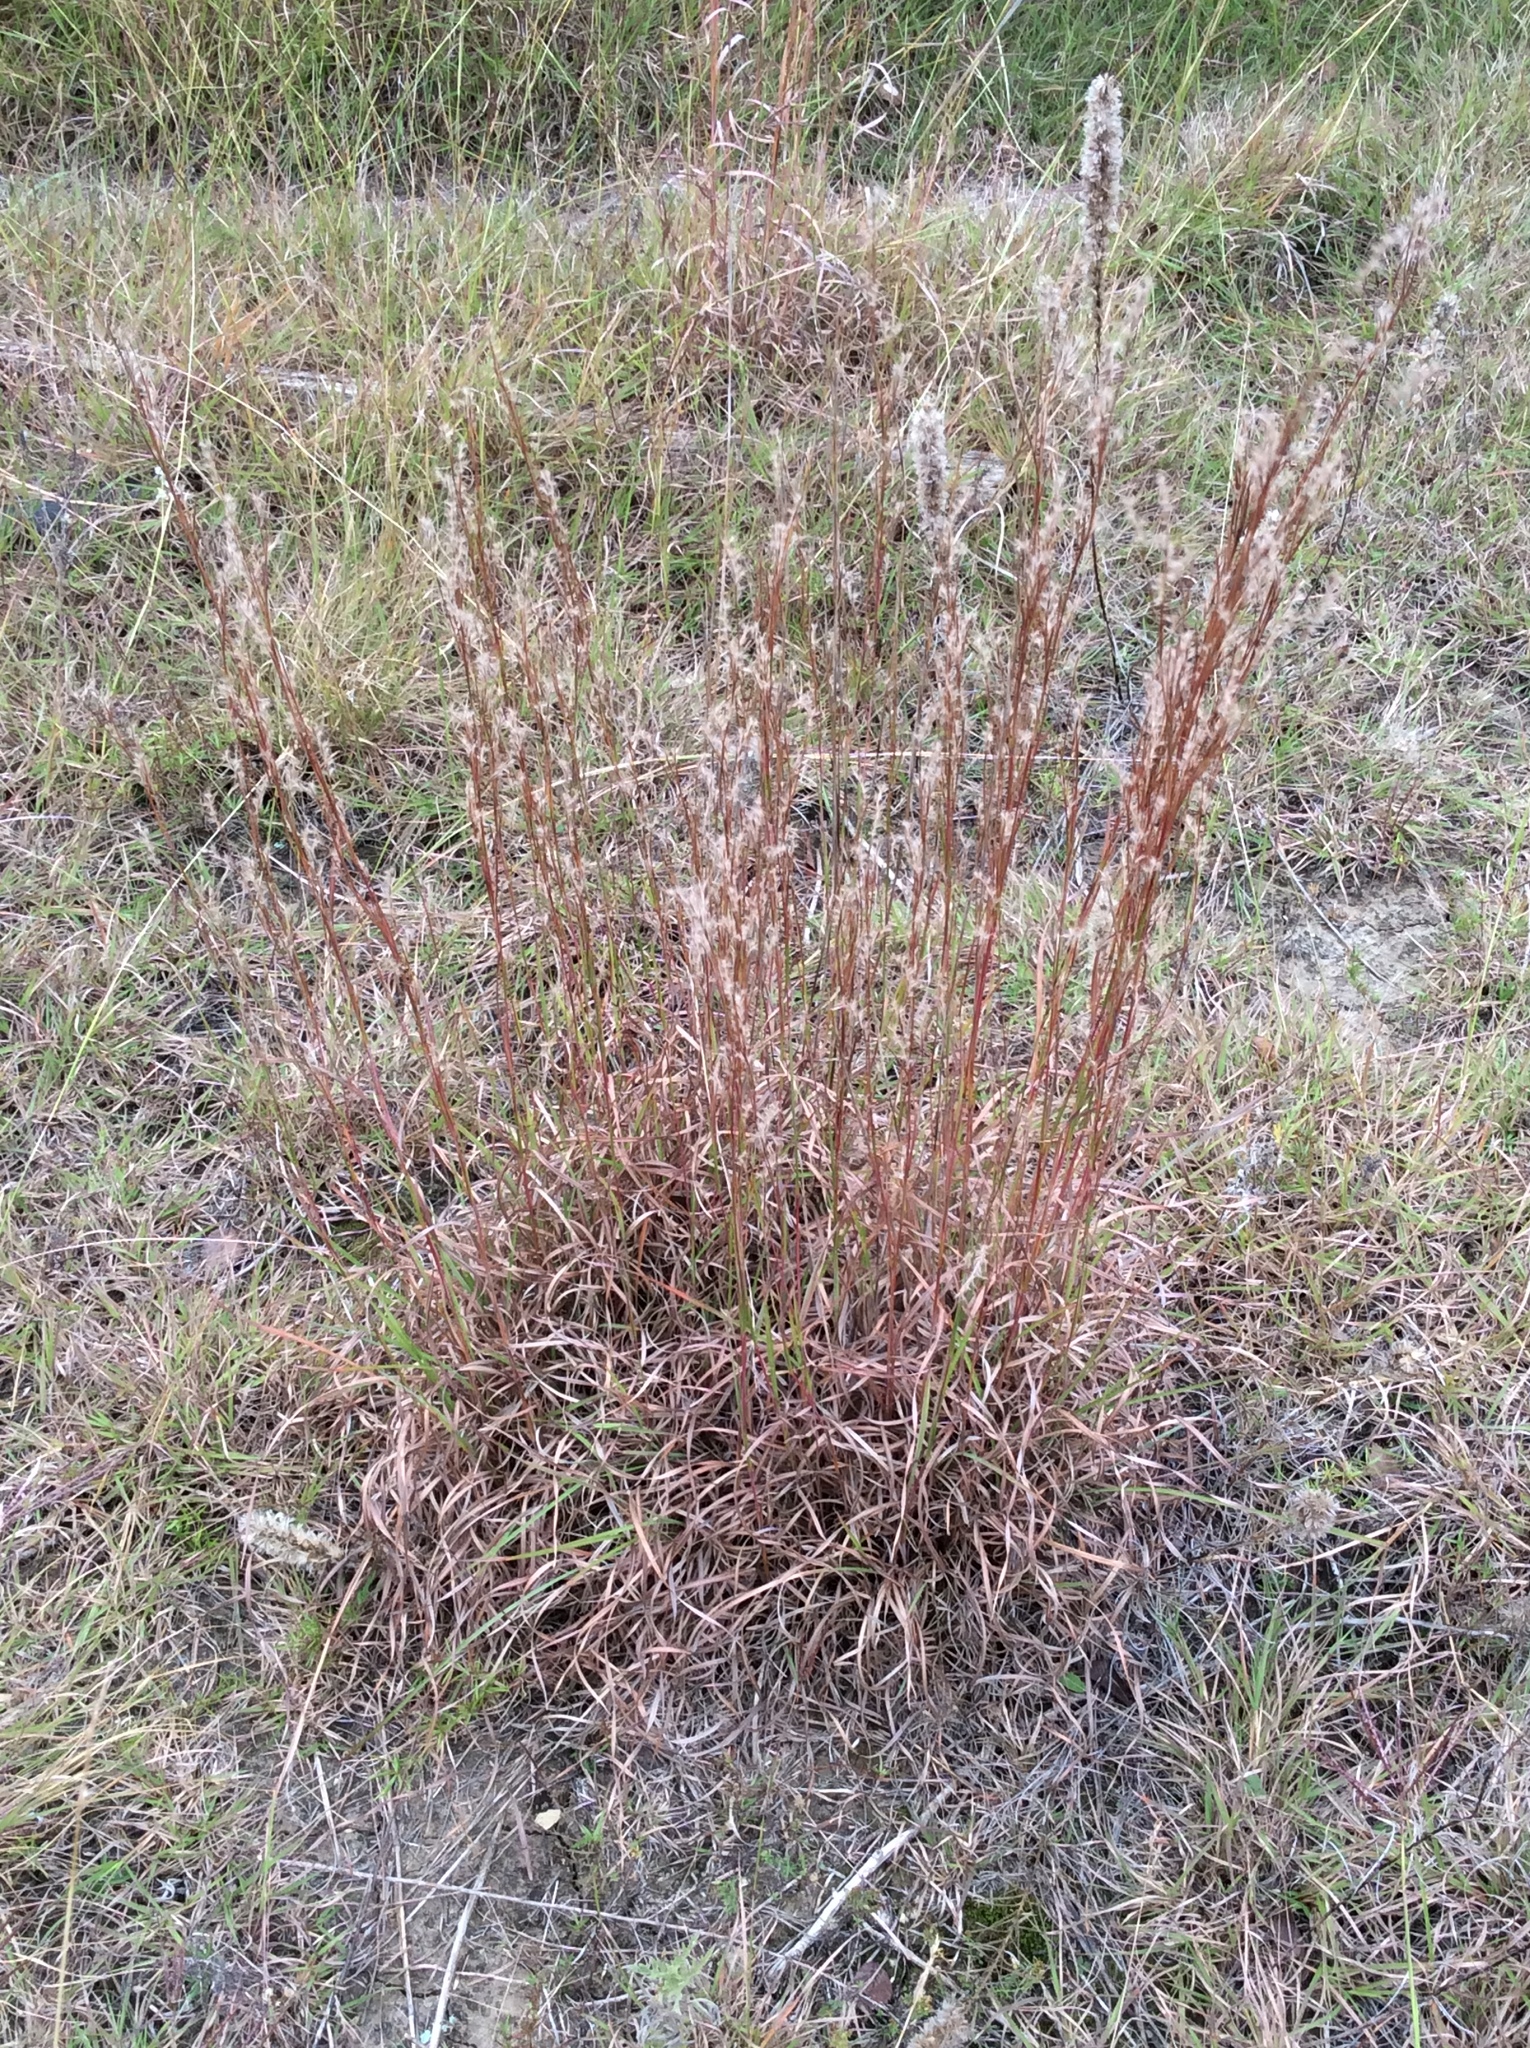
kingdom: Plantae
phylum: Tracheophyta
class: Liliopsida
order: Poales
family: Poaceae
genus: Schizachyrium
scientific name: Schizachyrium scoparium
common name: Little bluestem
